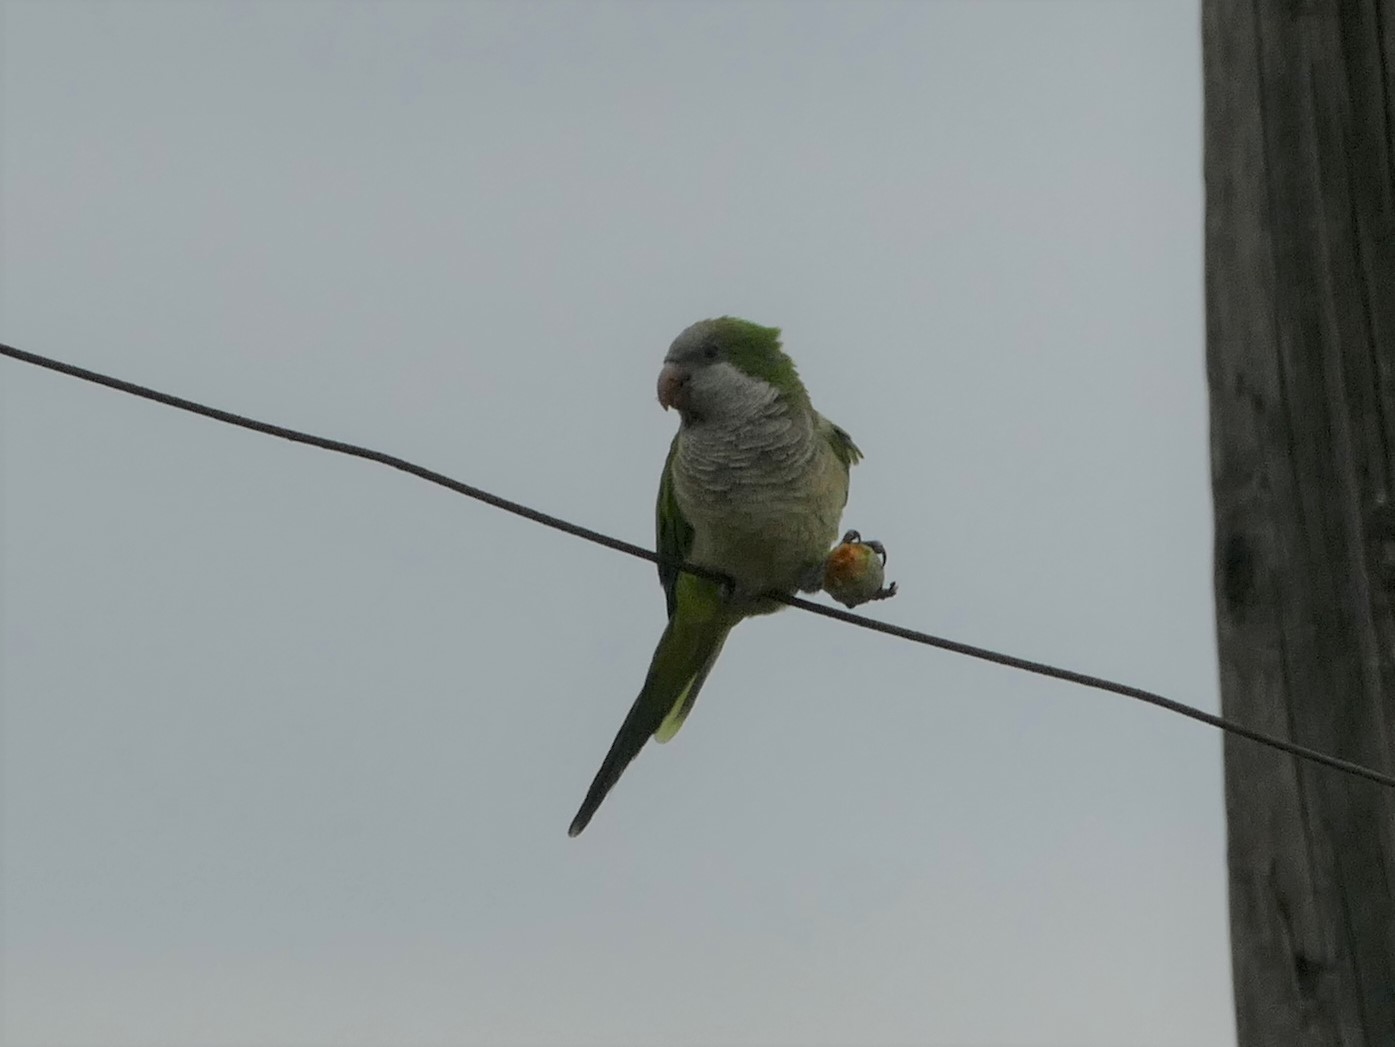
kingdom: Animalia
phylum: Chordata
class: Aves
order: Psittaciformes
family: Psittacidae
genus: Myiopsitta
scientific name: Myiopsitta monachus
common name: Monk parakeet
